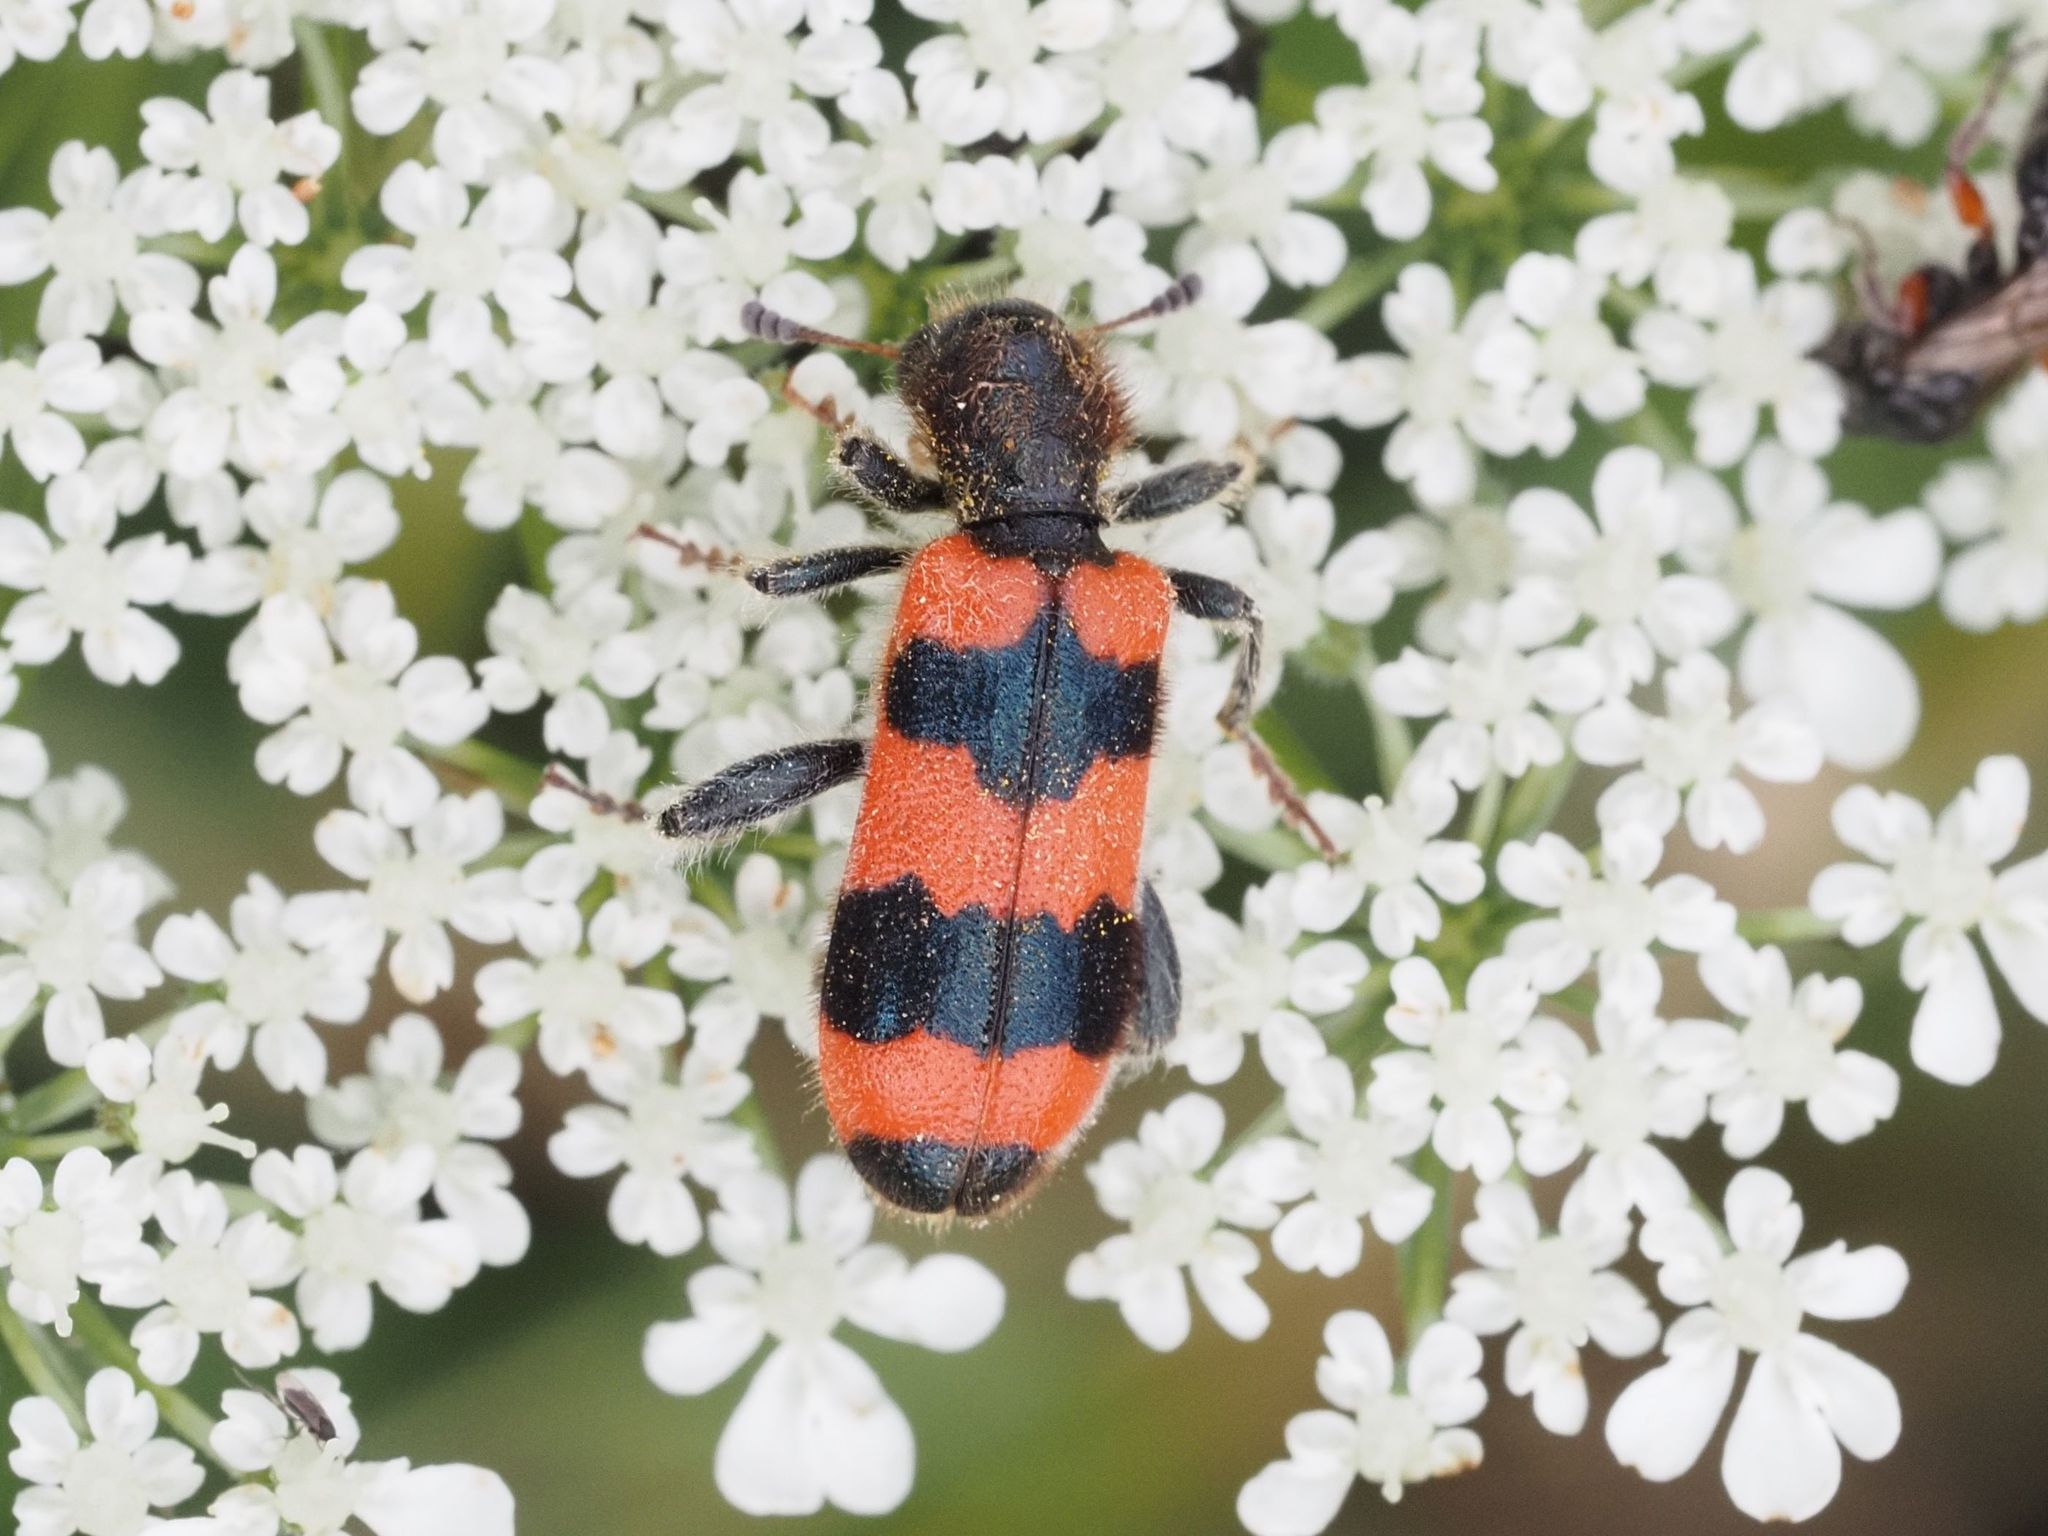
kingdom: Animalia
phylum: Arthropoda
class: Insecta
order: Coleoptera
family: Cleridae
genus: Trichodes
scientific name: Trichodes apiarius
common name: Bee-eating beetle
